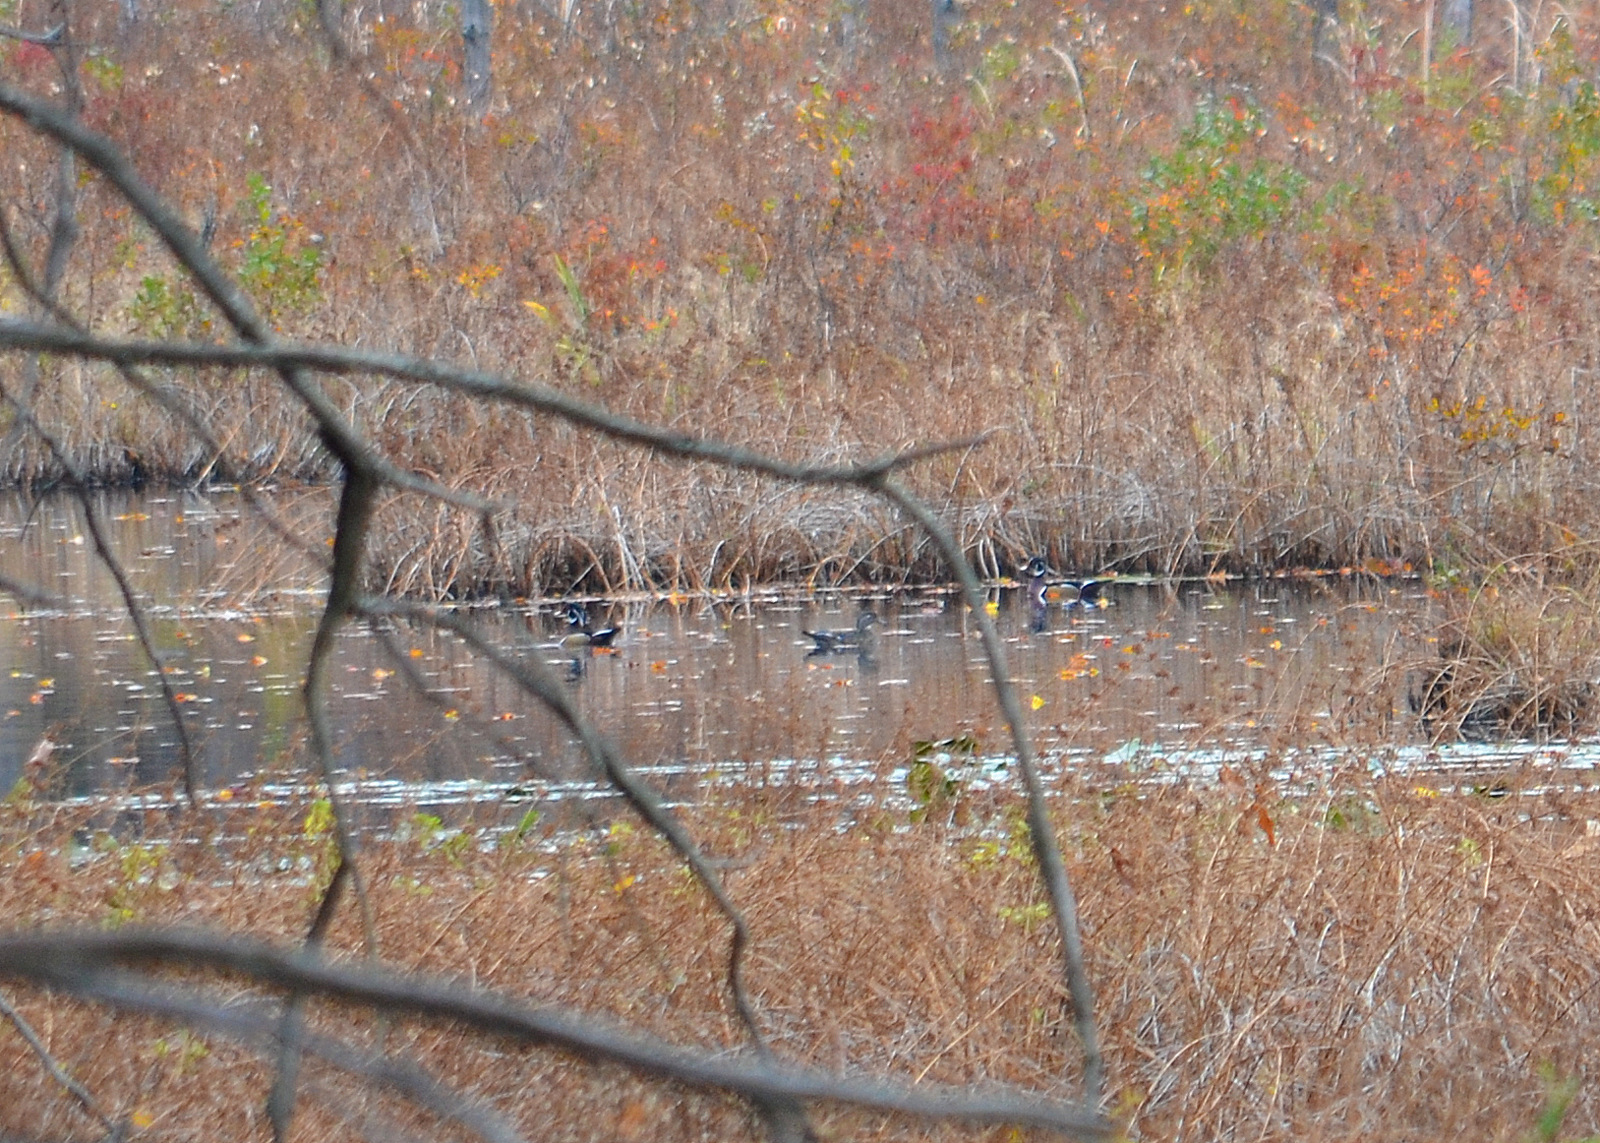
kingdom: Animalia
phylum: Chordata
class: Aves
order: Anseriformes
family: Anatidae
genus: Aix
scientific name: Aix sponsa
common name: Wood duck
